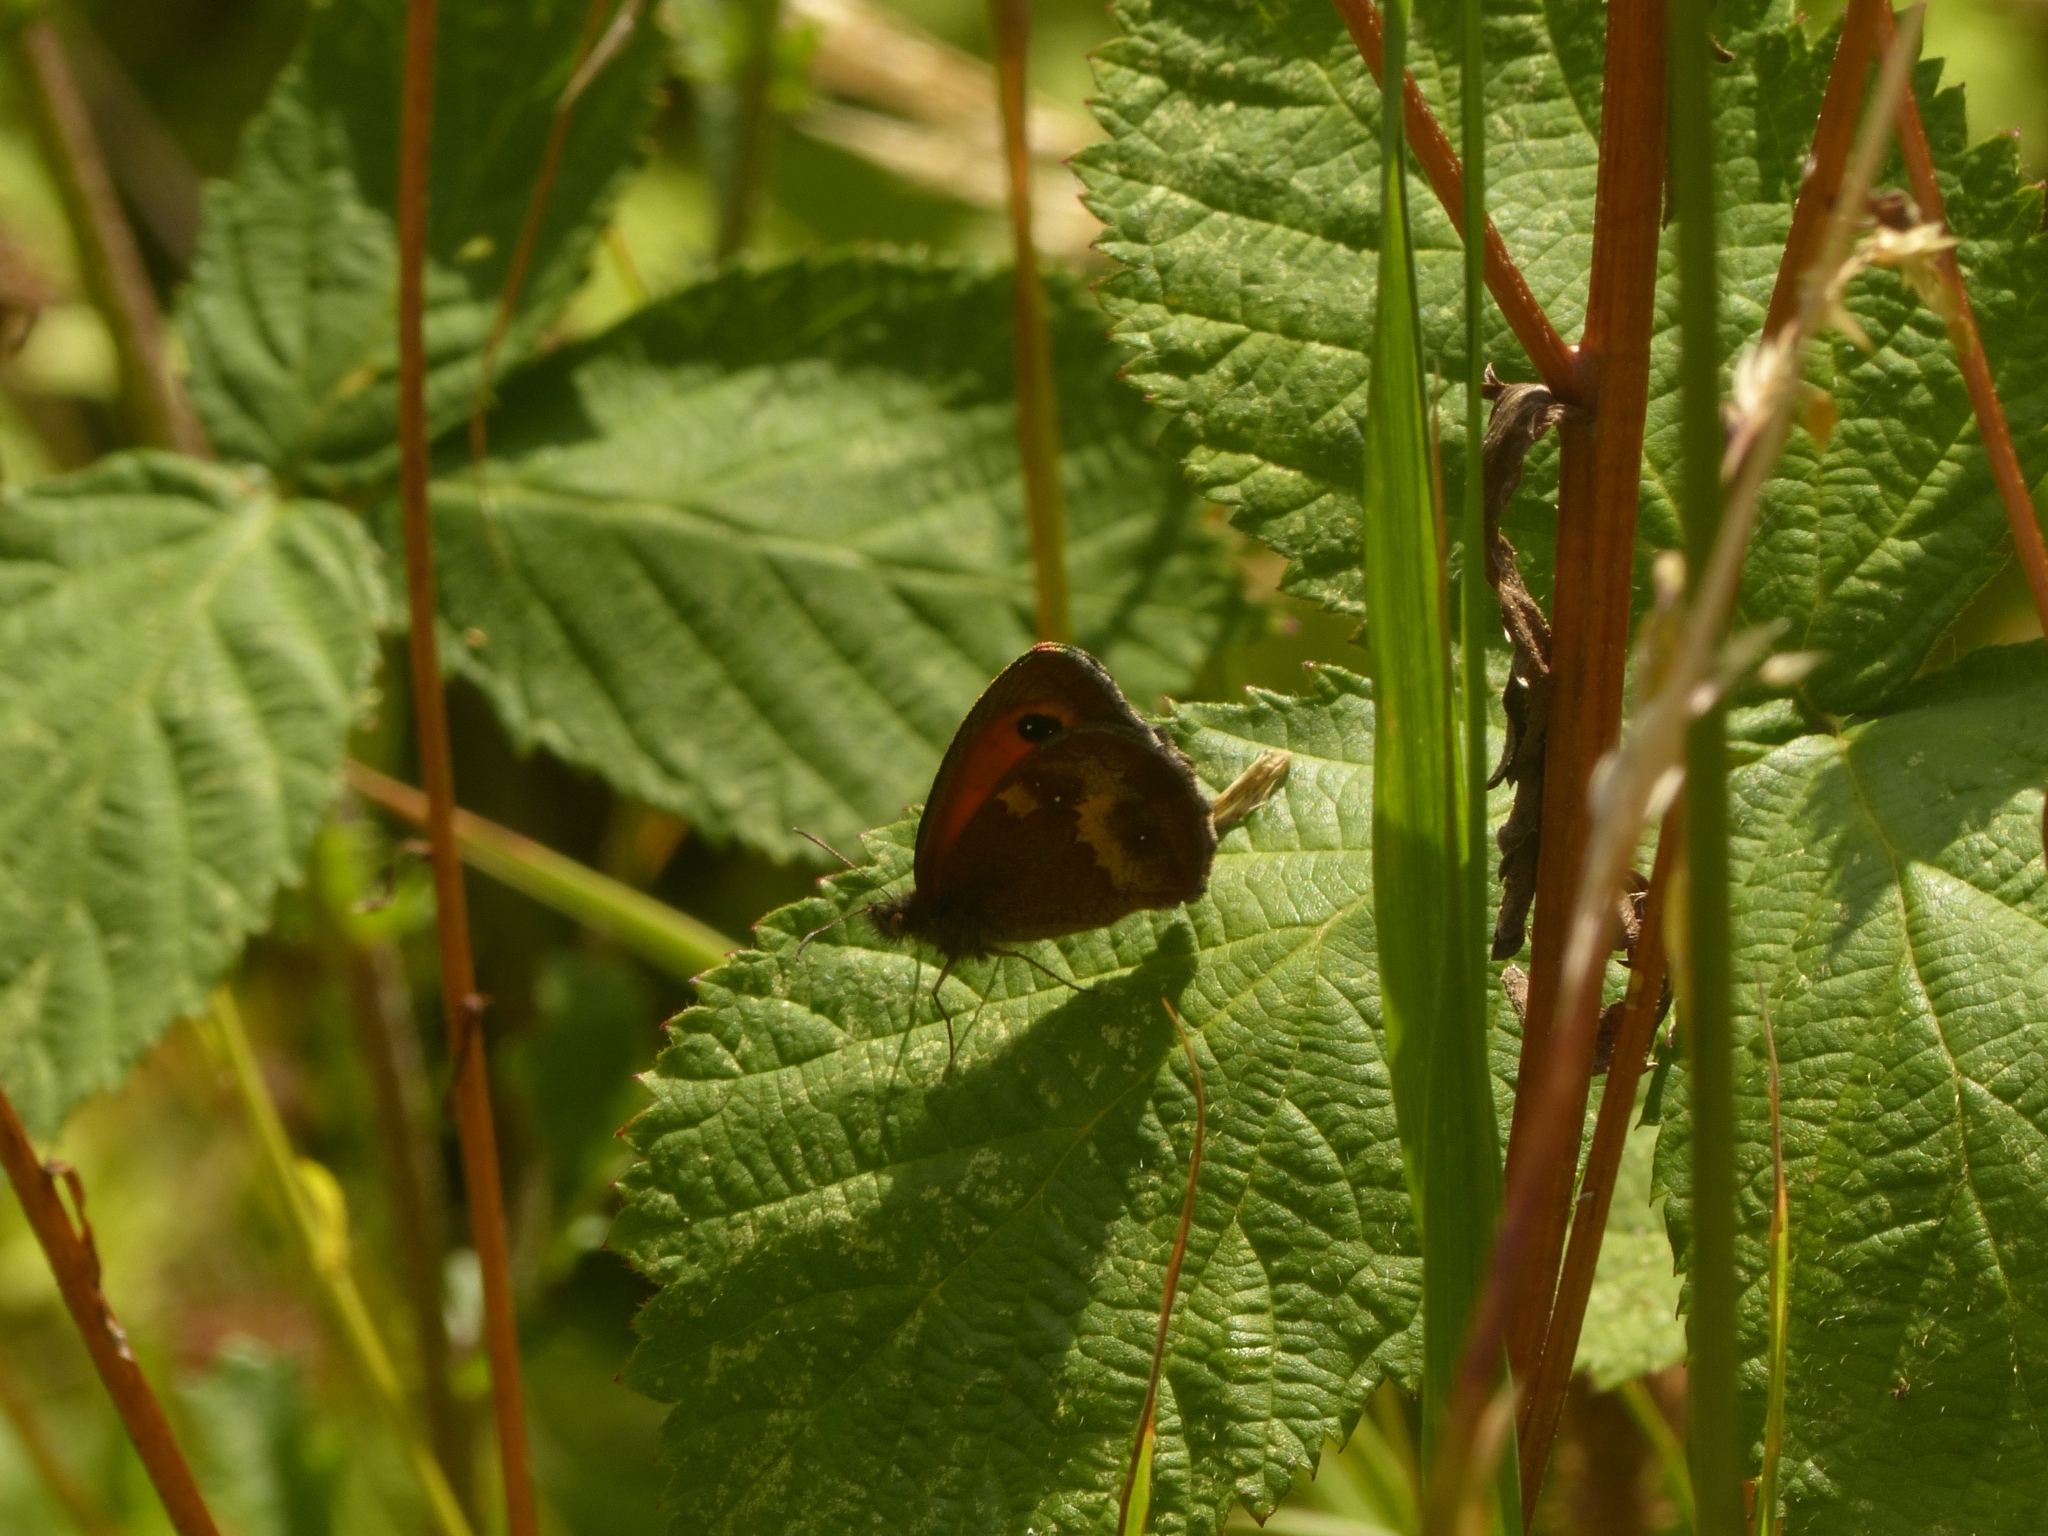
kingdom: Animalia
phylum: Arthropoda
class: Insecta
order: Lepidoptera
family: Nymphalidae
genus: Pyronia
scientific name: Pyronia tithonus
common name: Gatekeeper
